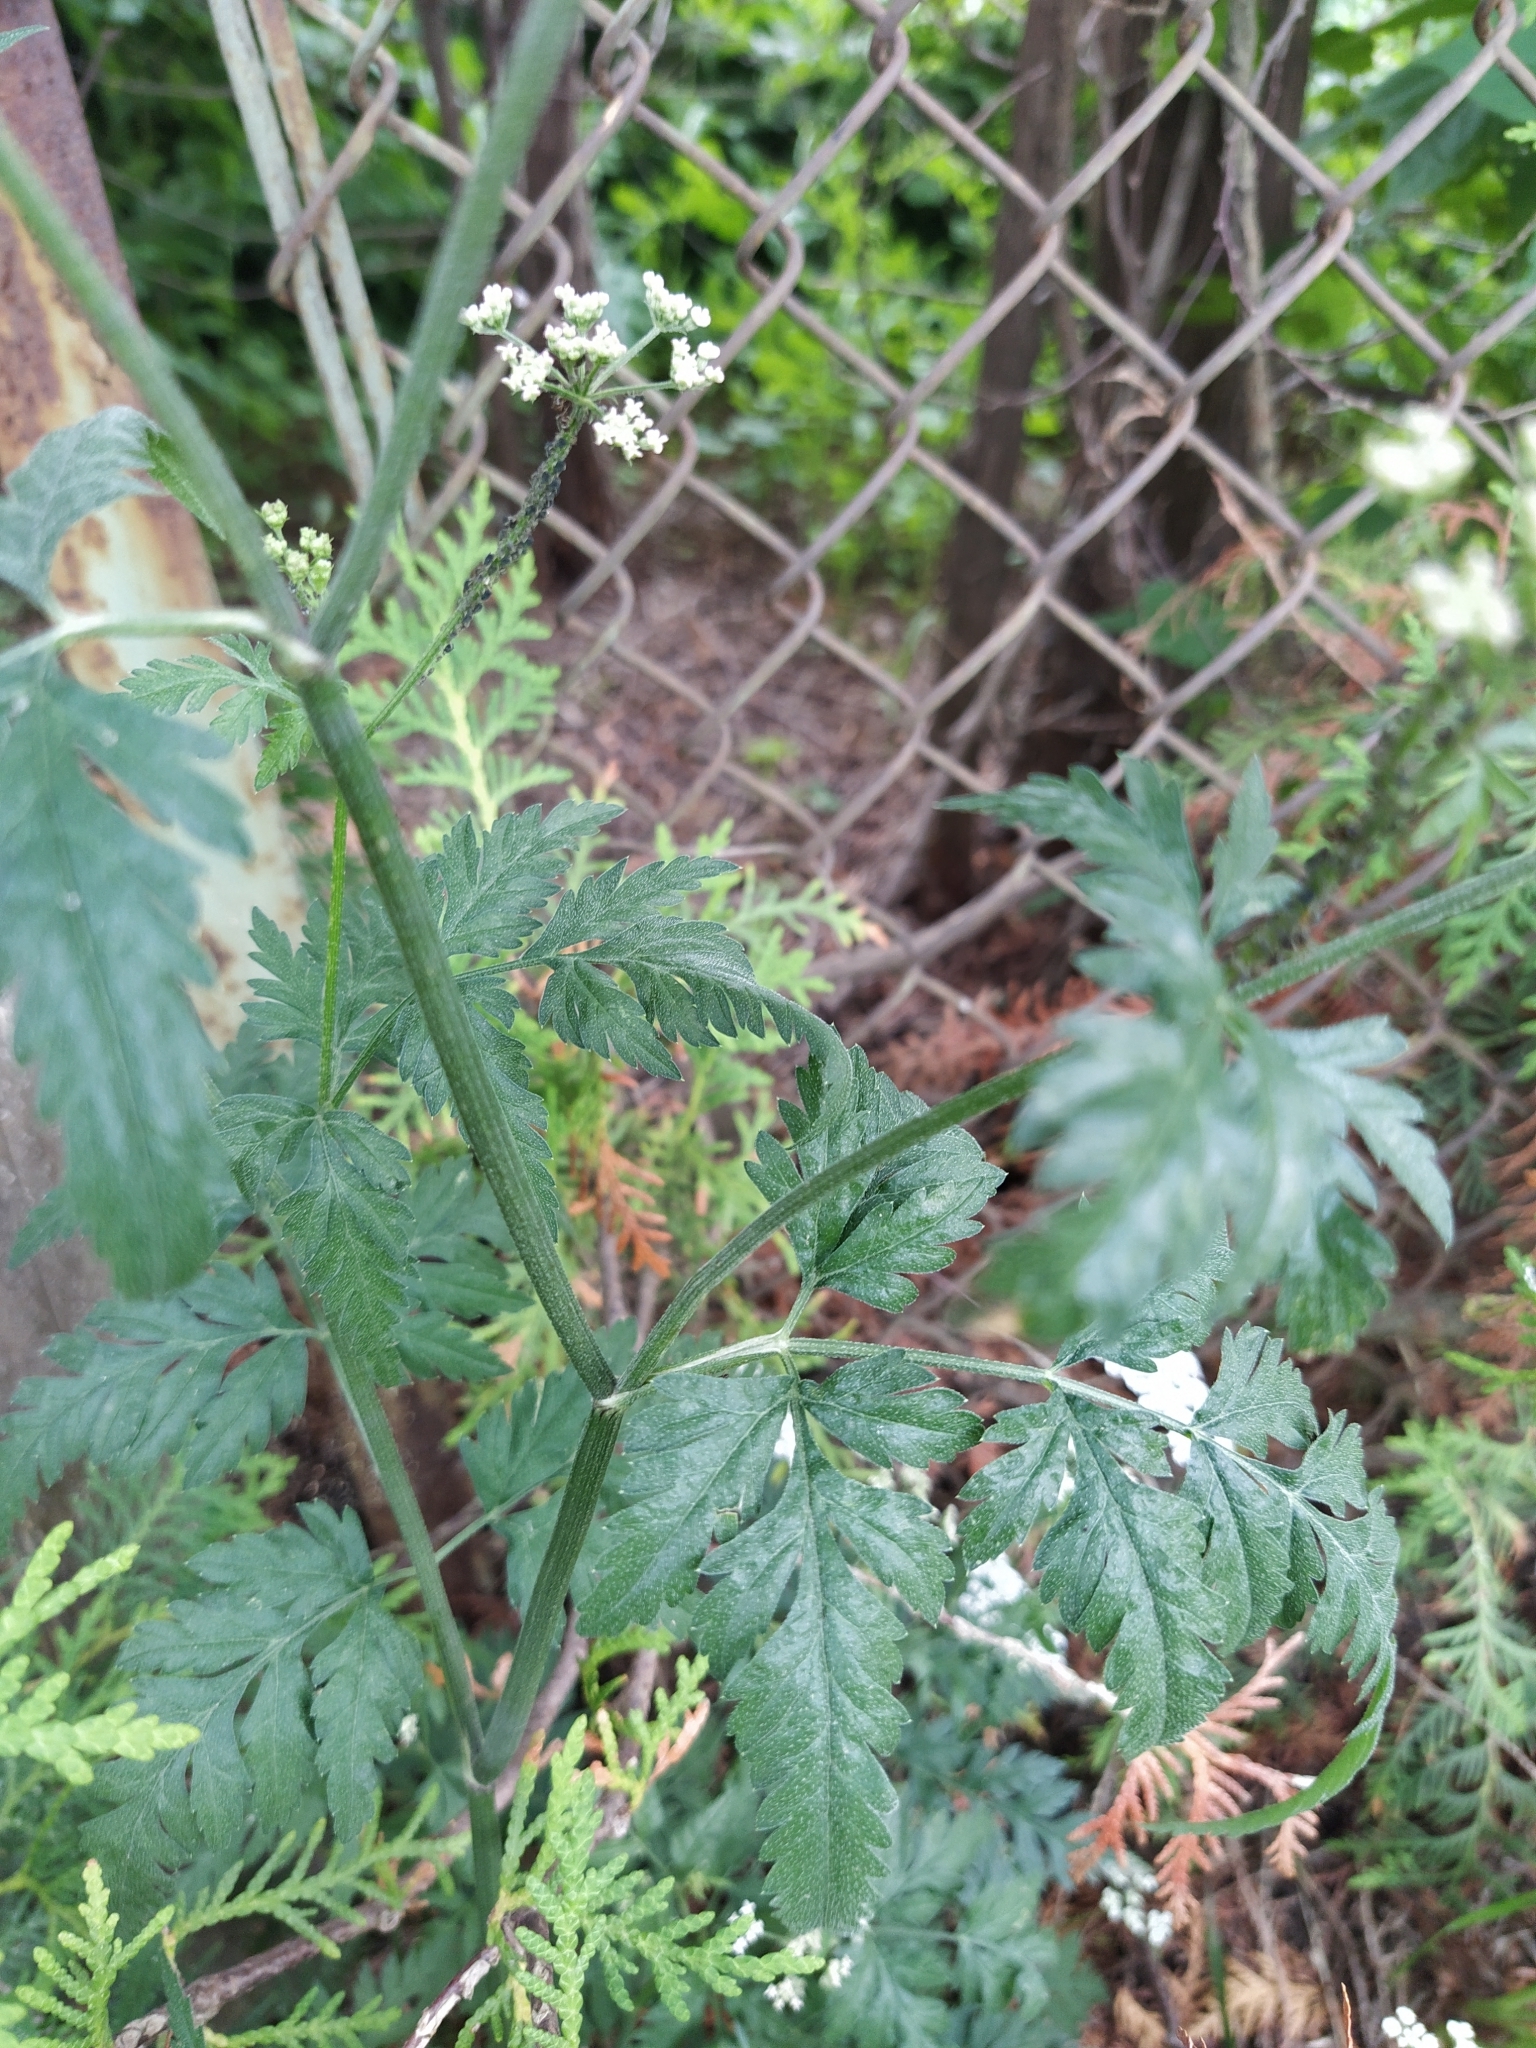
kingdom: Plantae
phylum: Tracheophyta
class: Magnoliopsida
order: Apiales
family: Apiaceae
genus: Torilis
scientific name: Torilis japonica
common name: Upright hedge-parsley
